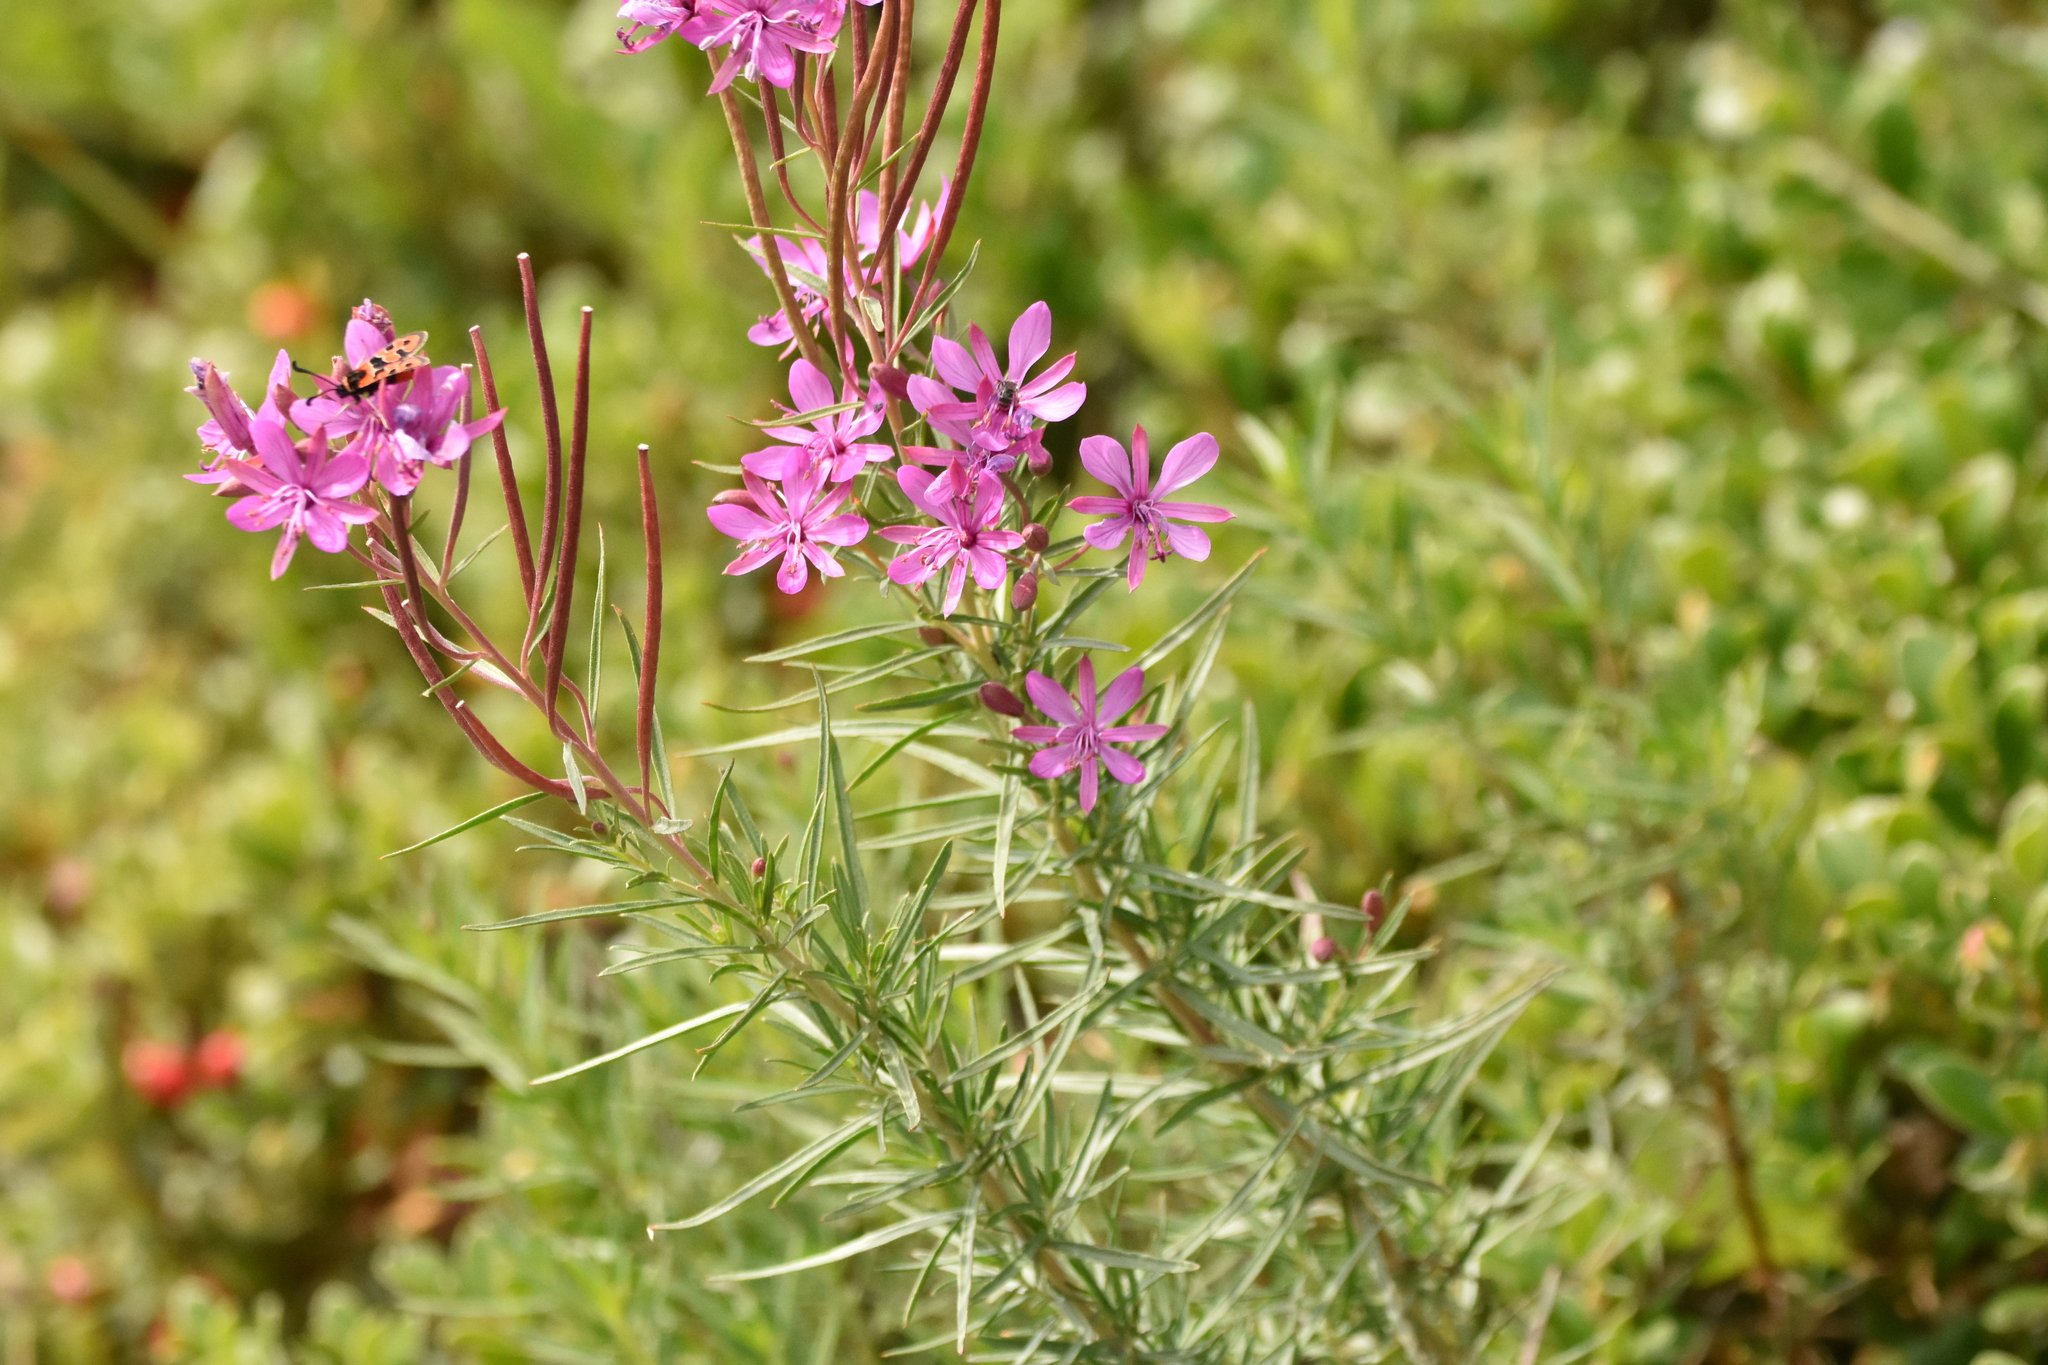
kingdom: Plantae
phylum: Tracheophyta
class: Magnoliopsida
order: Myrtales
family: Onagraceae
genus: Chamaenerion
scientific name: Chamaenerion dodonaei
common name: Rosemary-leaved willowherb
